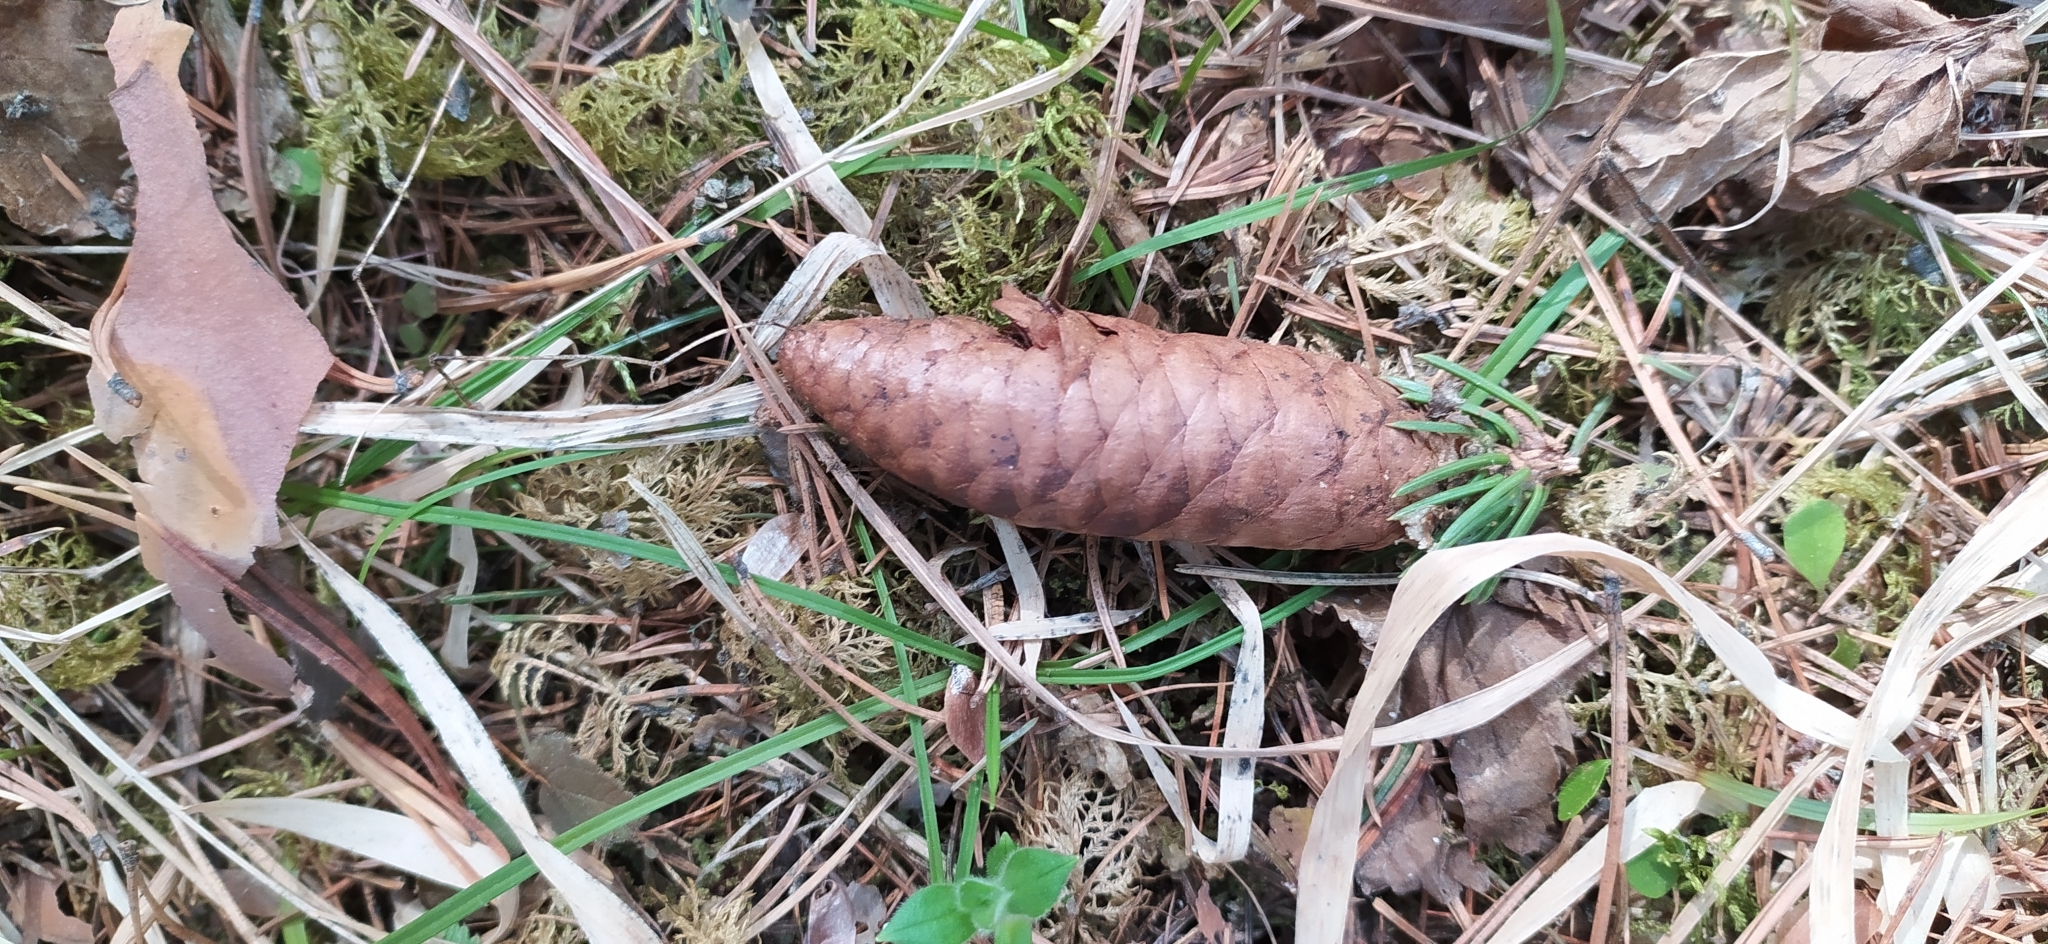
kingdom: Plantae
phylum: Tracheophyta
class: Pinopsida
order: Pinales
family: Pinaceae
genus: Picea
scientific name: Picea obovata
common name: Siberian spruce
